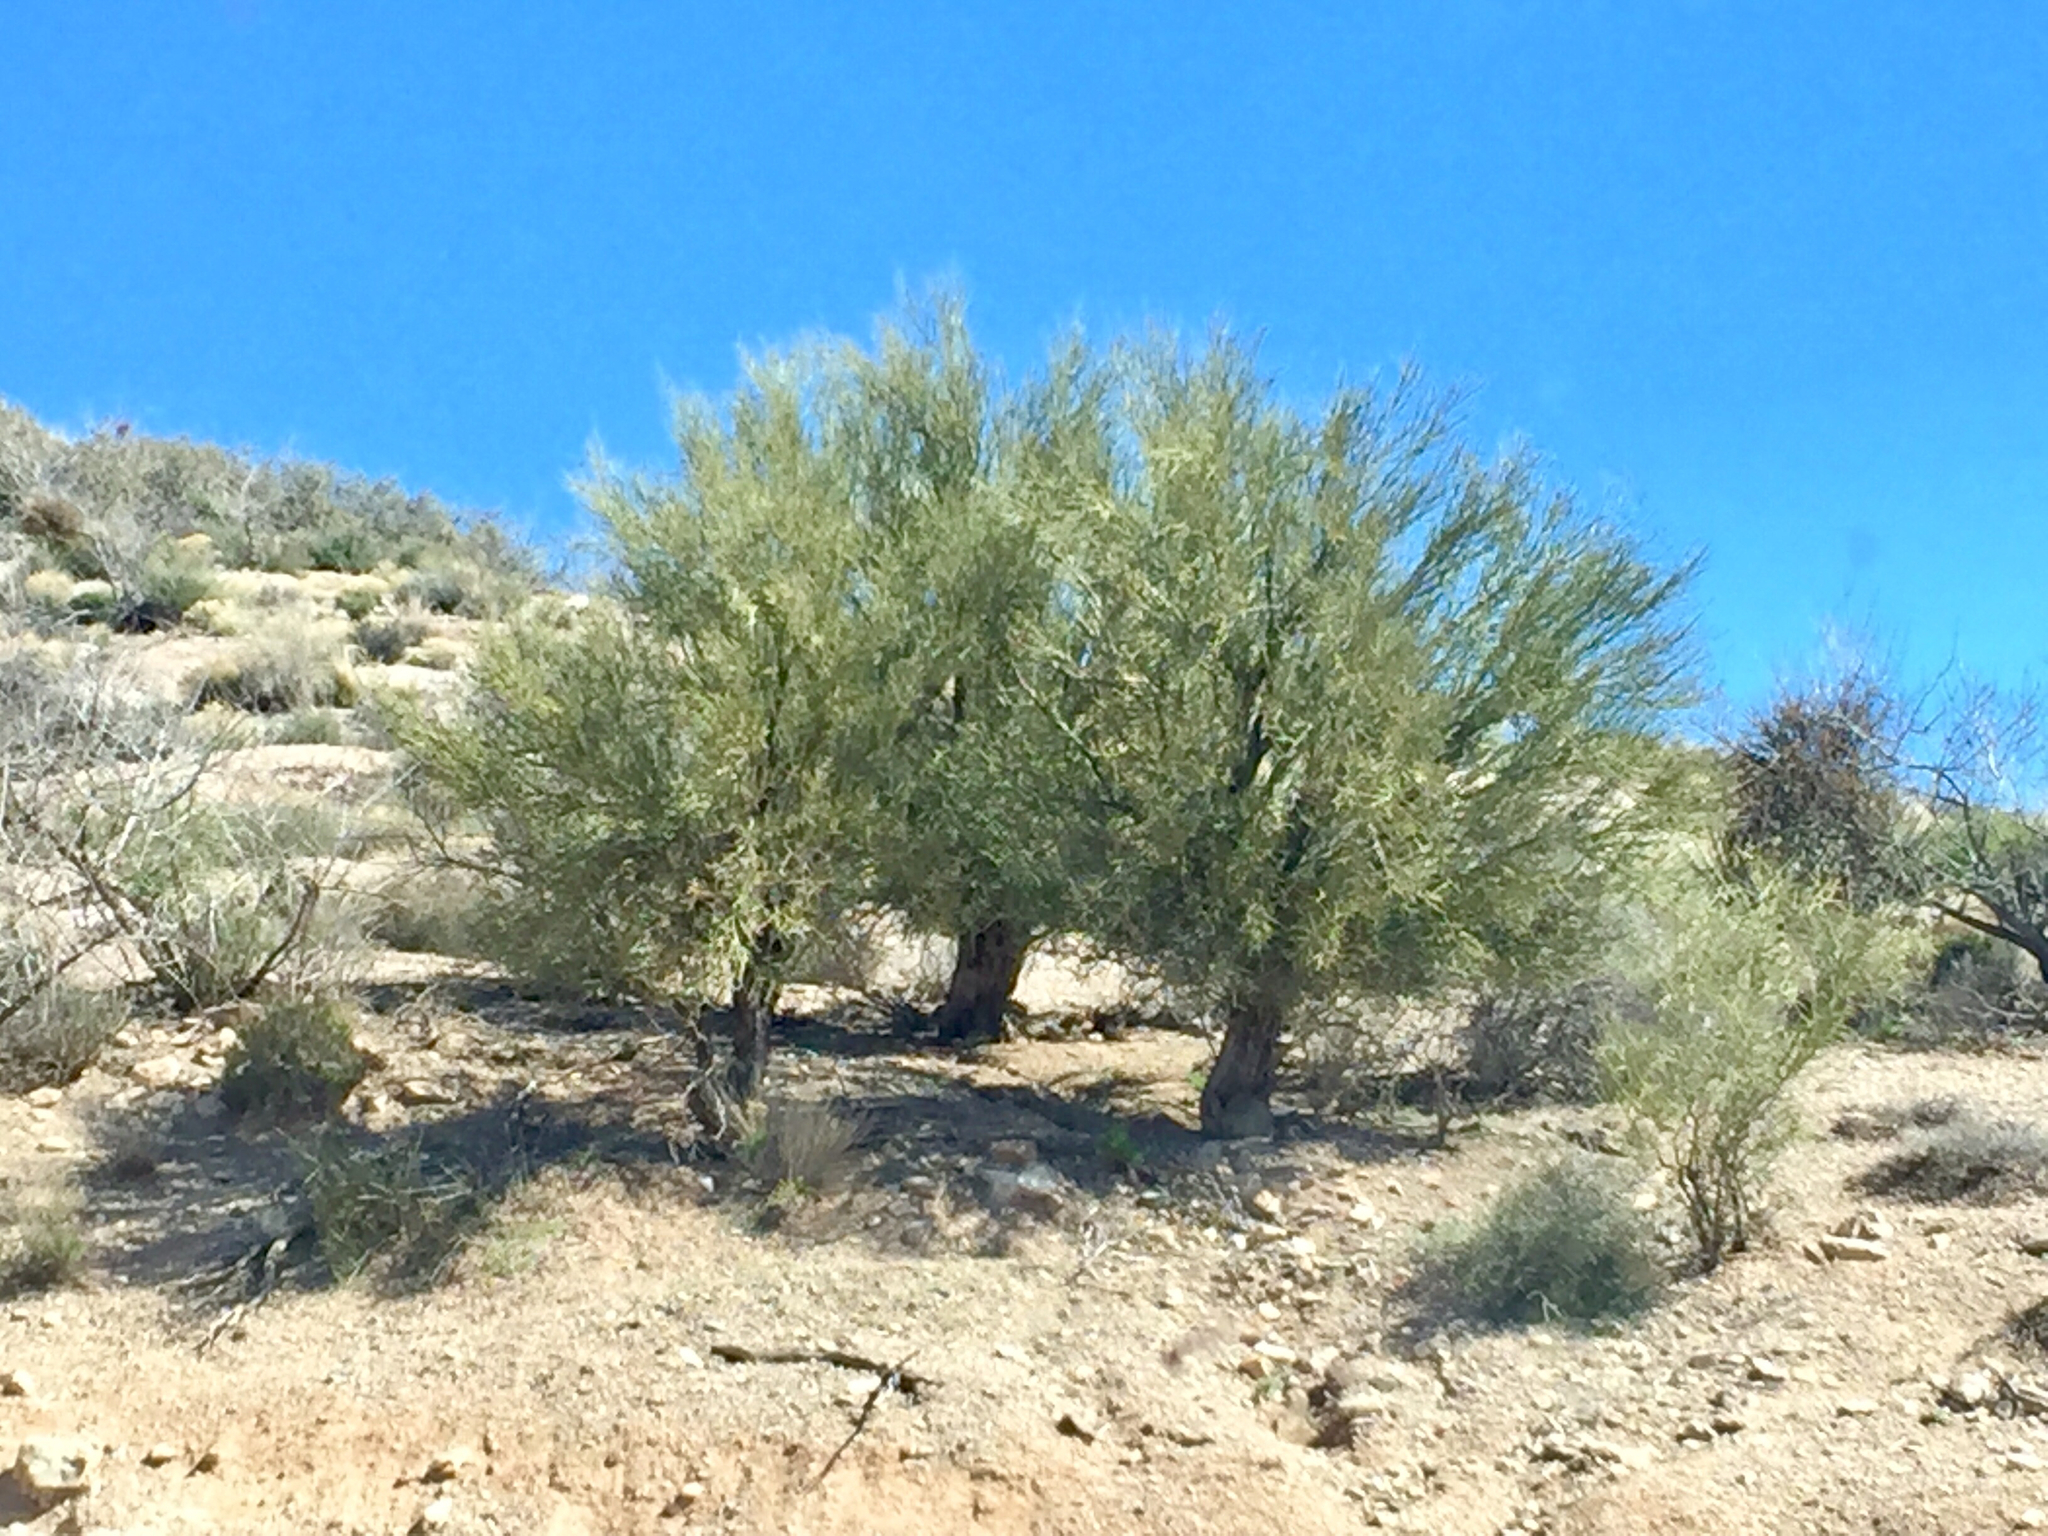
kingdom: Plantae
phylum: Tracheophyta
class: Magnoliopsida
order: Fabales
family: Fabaceae
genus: Parkinsonia
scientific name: Parkinsonia microphylla
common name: Yellow paloverde
